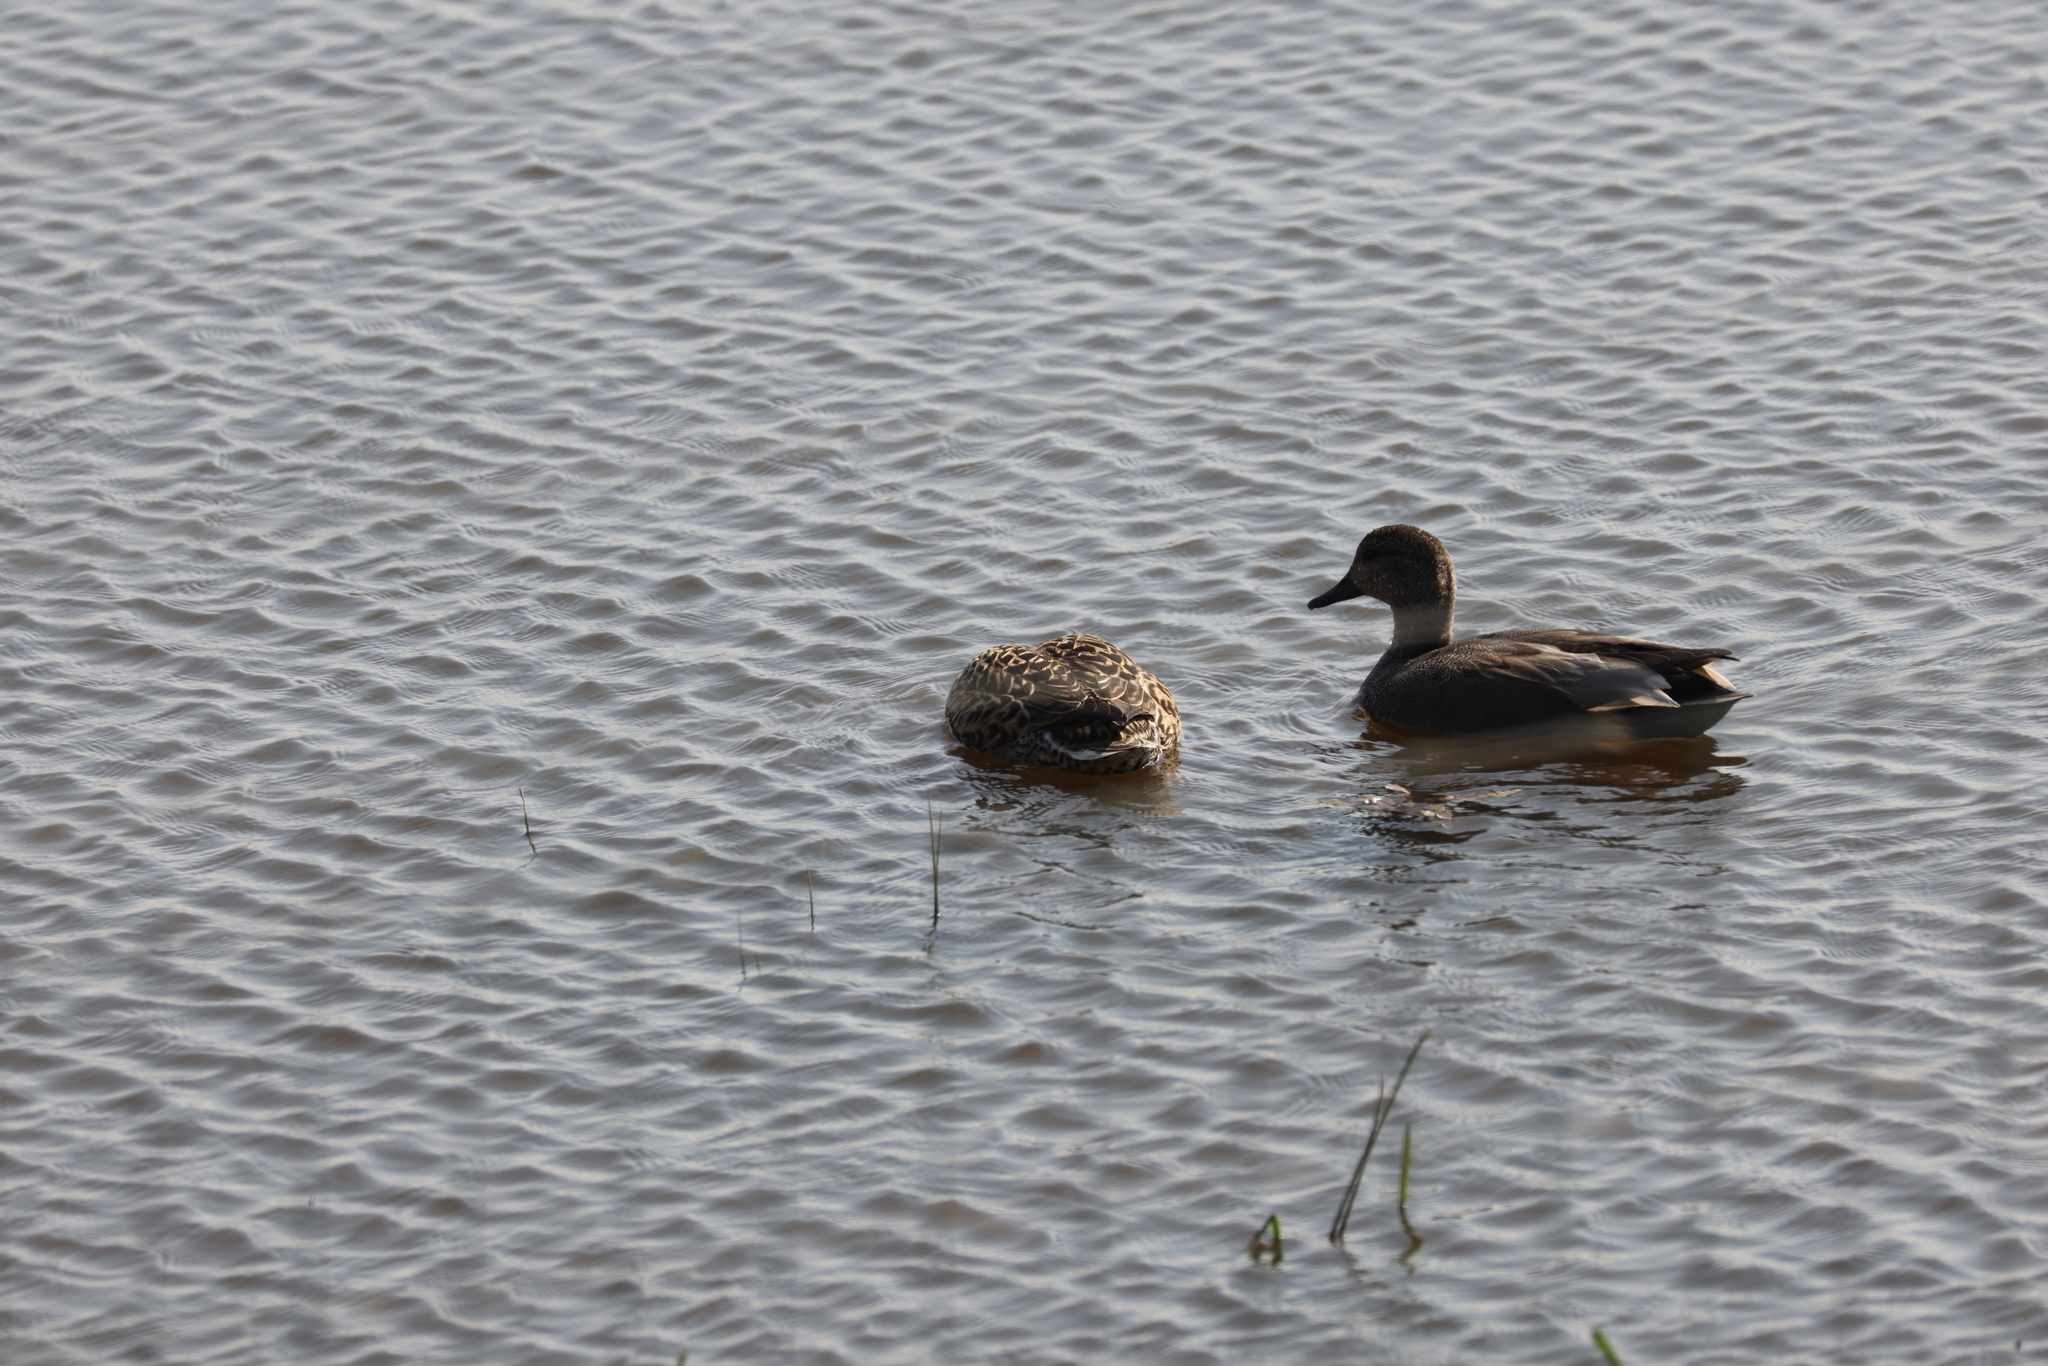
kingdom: Animalia
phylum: Chordata
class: Aves
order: Anseriformes
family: Anatidae
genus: Mareca
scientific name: Mareca strepera
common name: Gadwall
